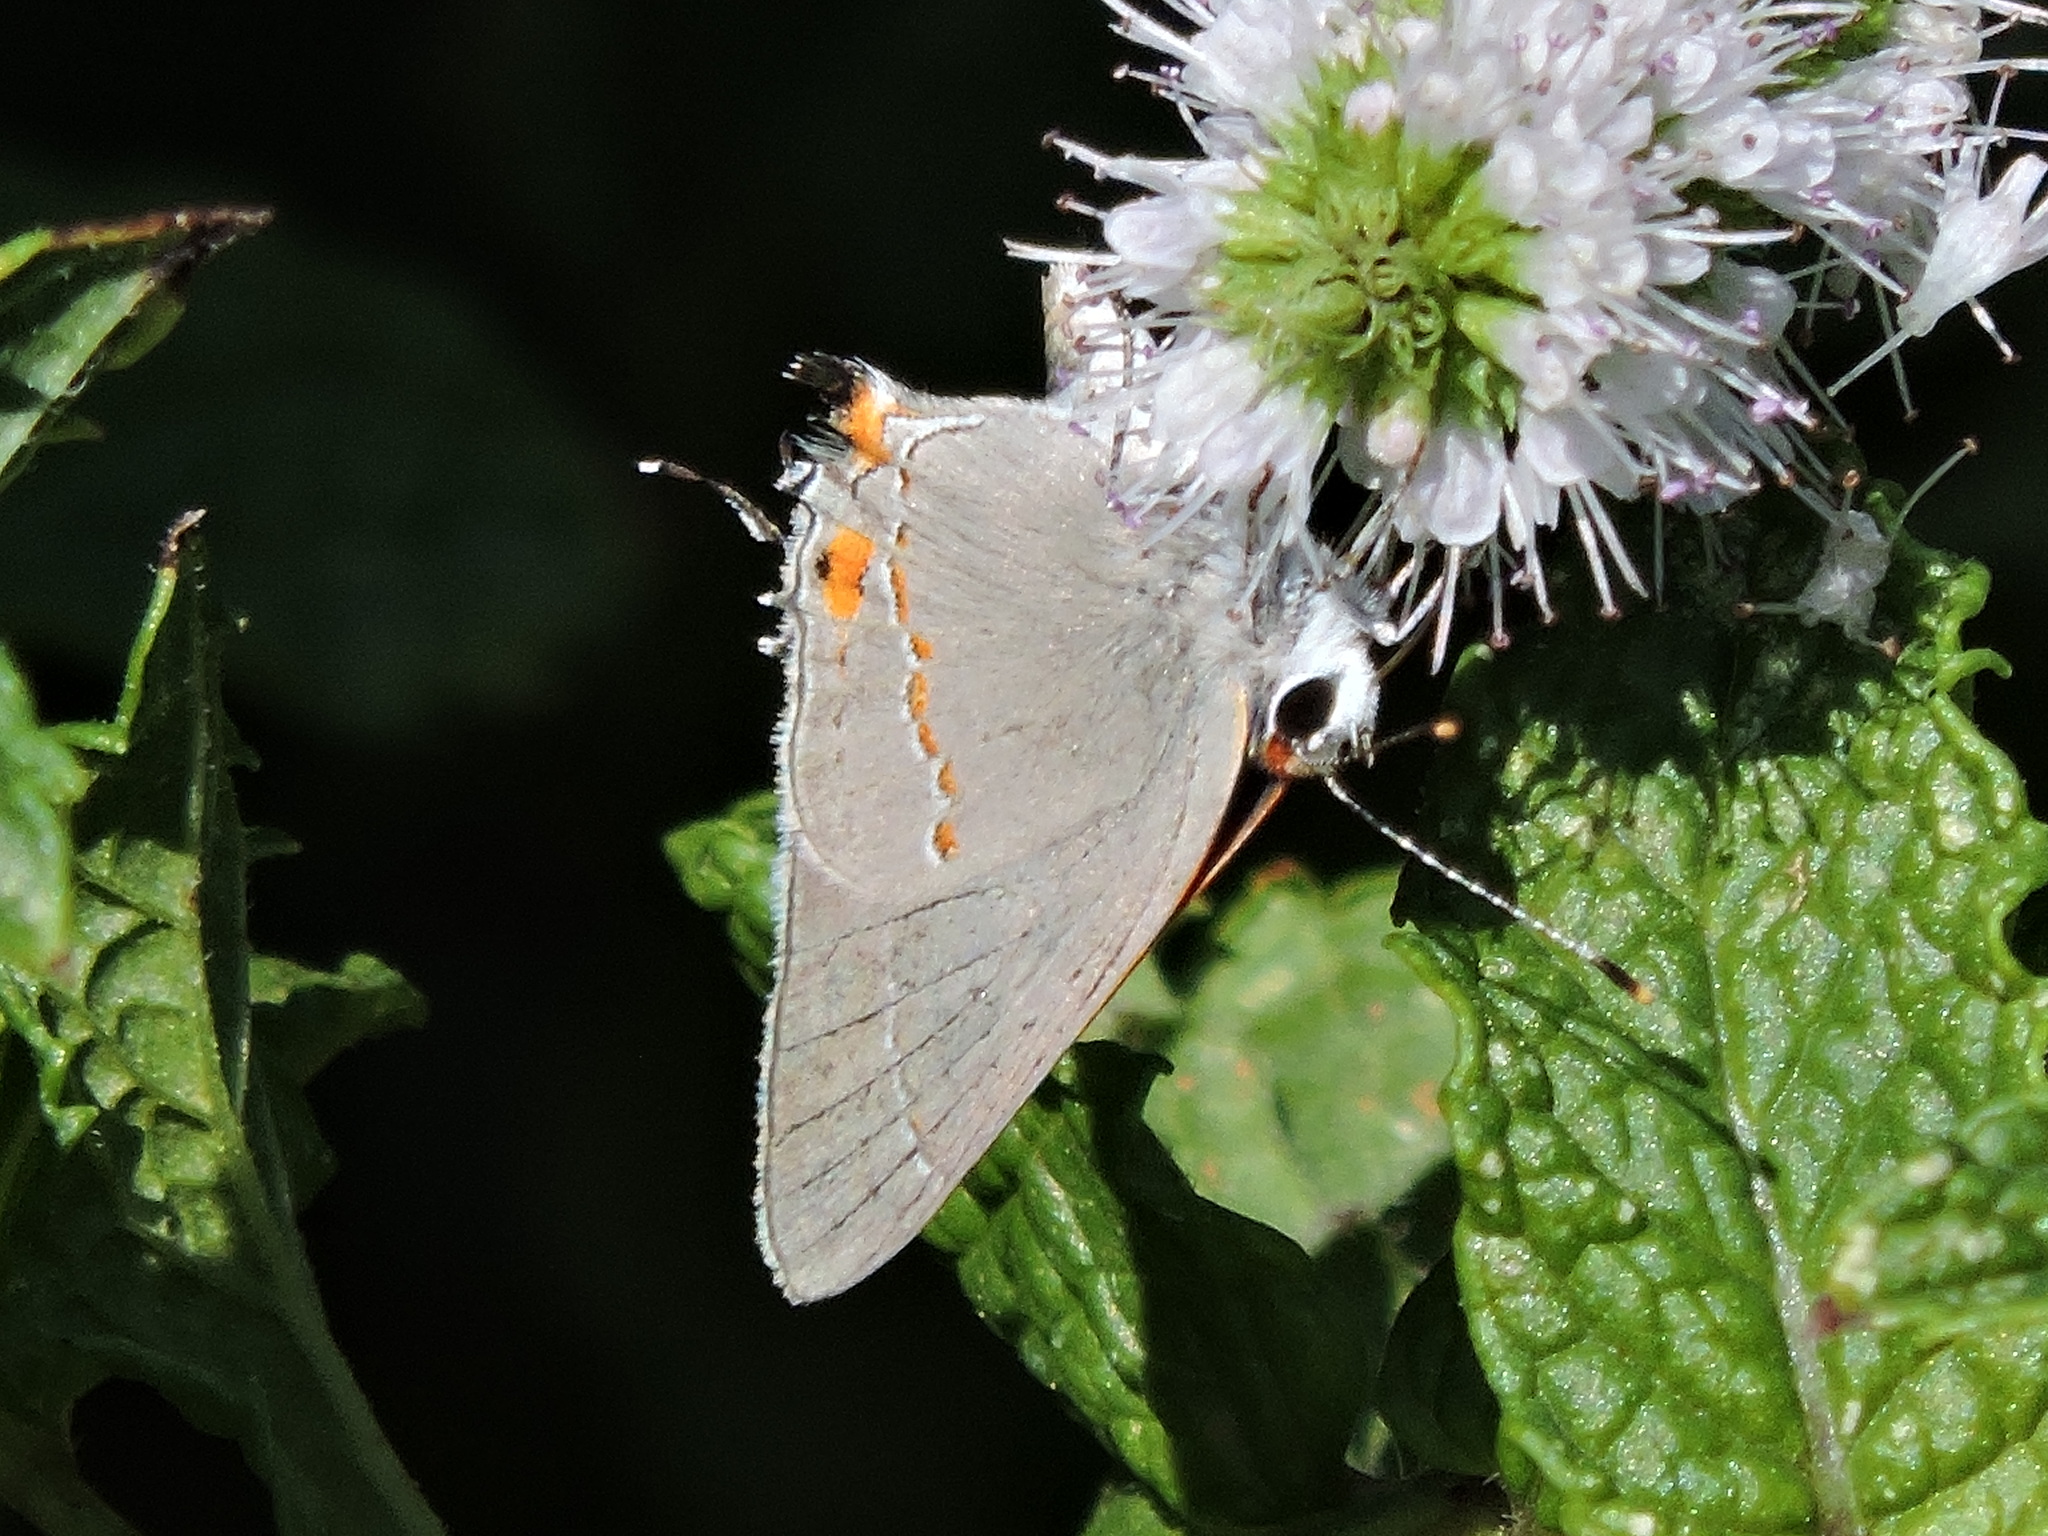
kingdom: Animalia
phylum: Arthropoda
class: Insecta
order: Lepidoptera
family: Lycaenidae
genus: Strymon
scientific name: Strymon melinus
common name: Gray hairstreak
